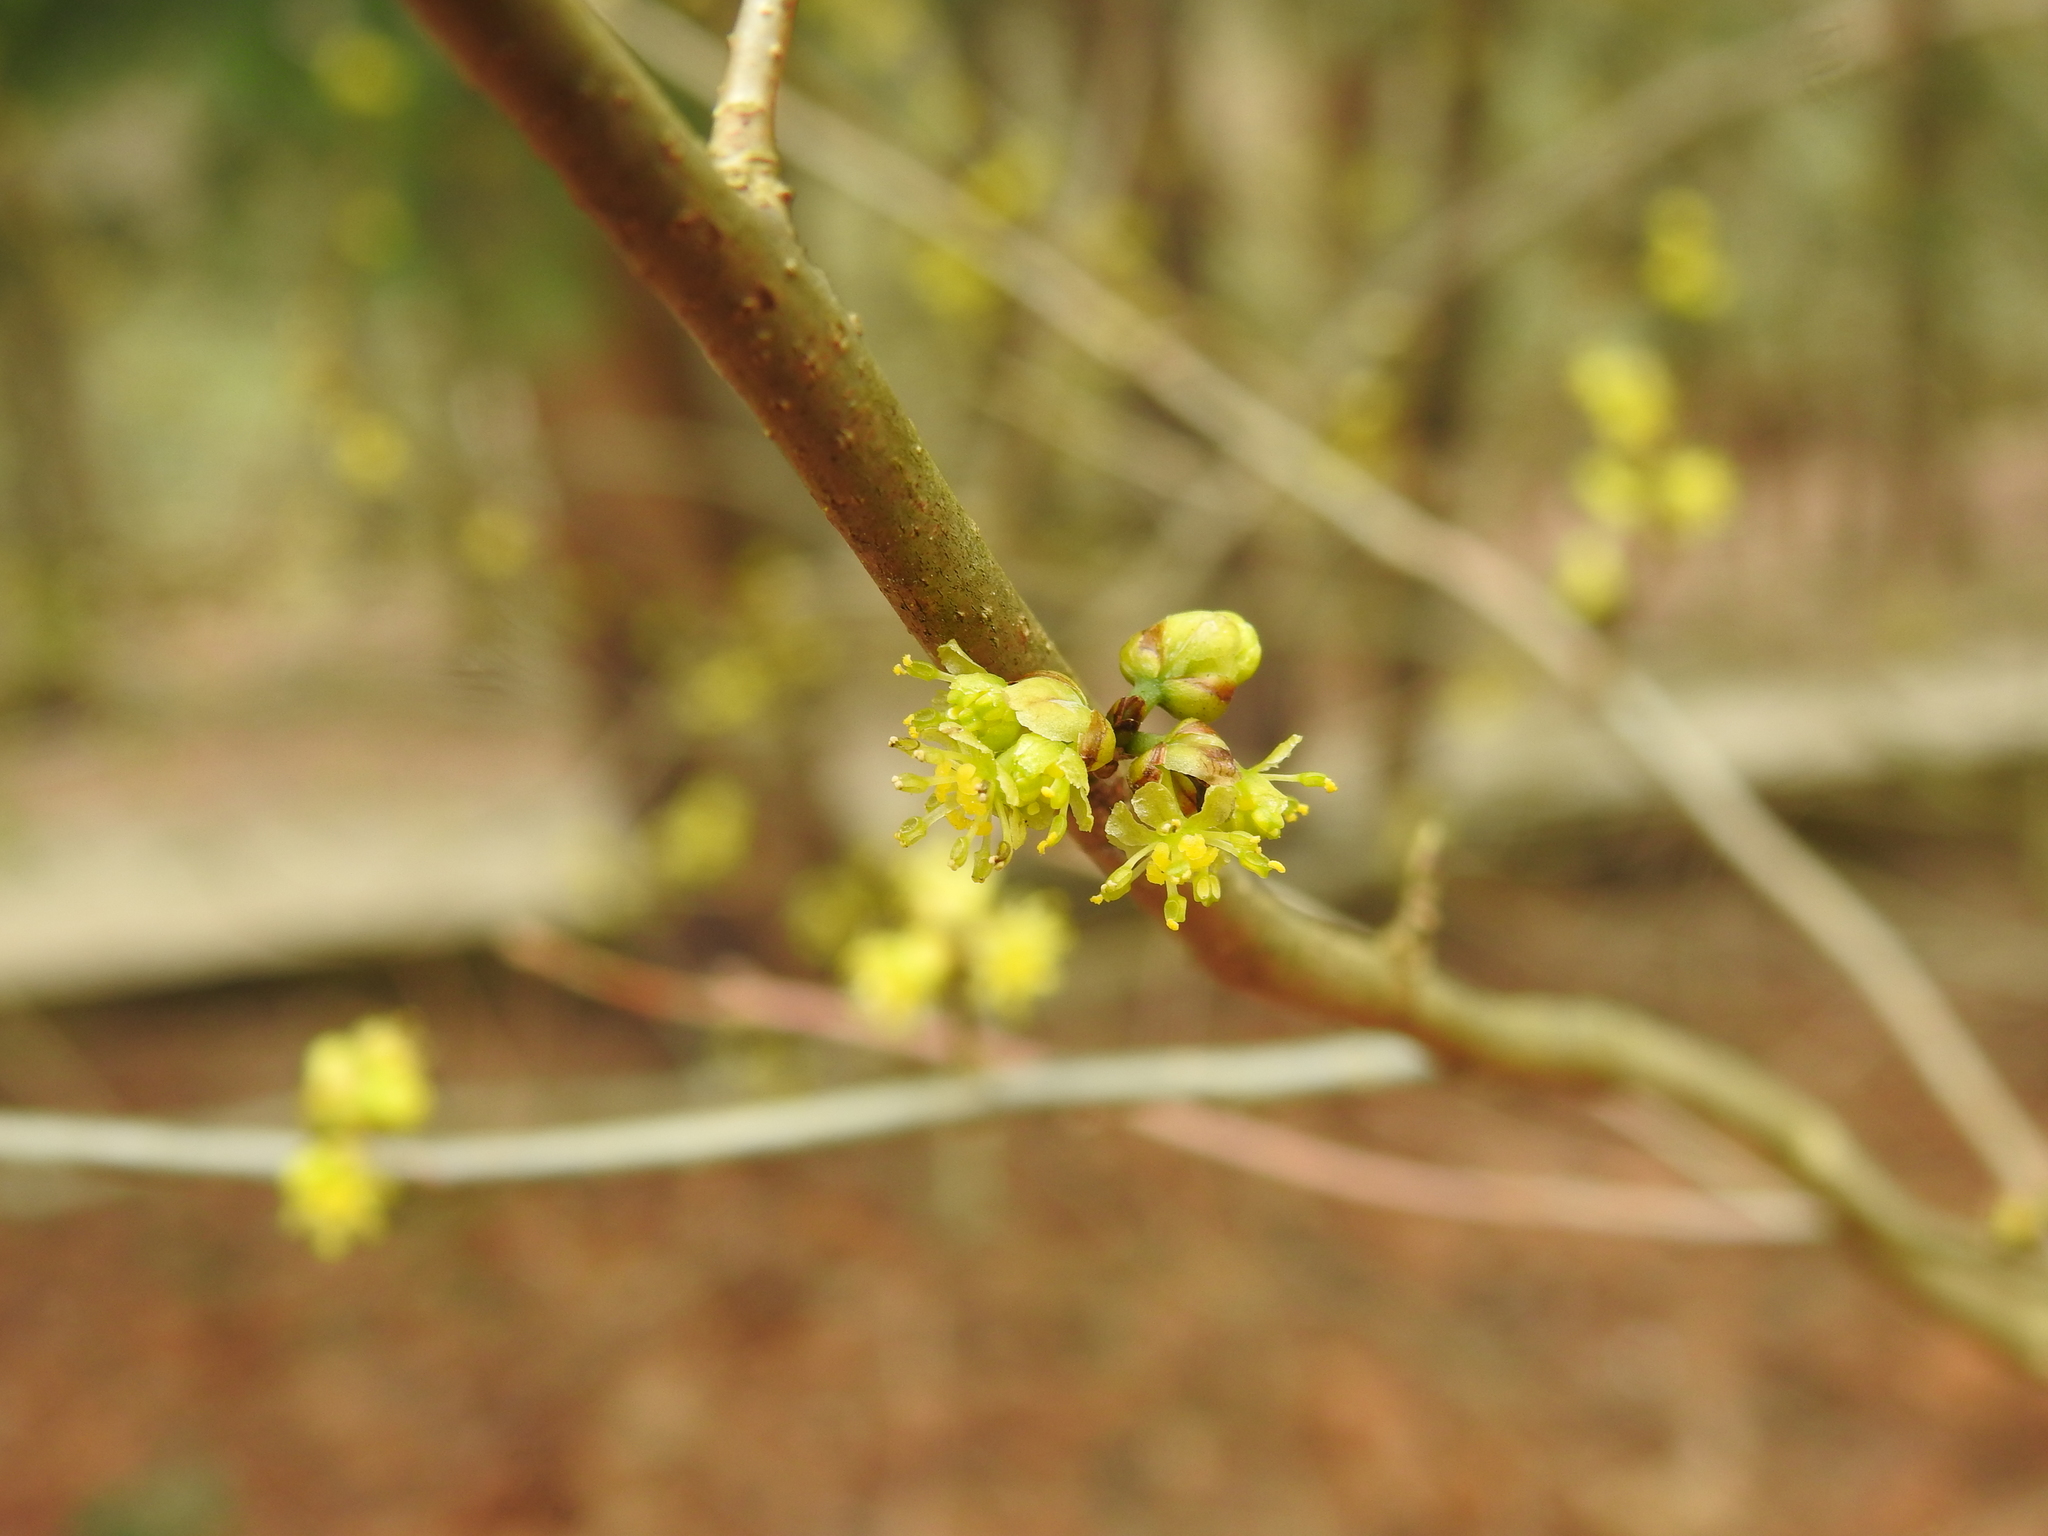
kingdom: Plantae
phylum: Tracheophyta
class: Magnoliopsida
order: Laurales
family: Lauraceae
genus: Lindera
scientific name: Lindera benzoin
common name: Spicebush
